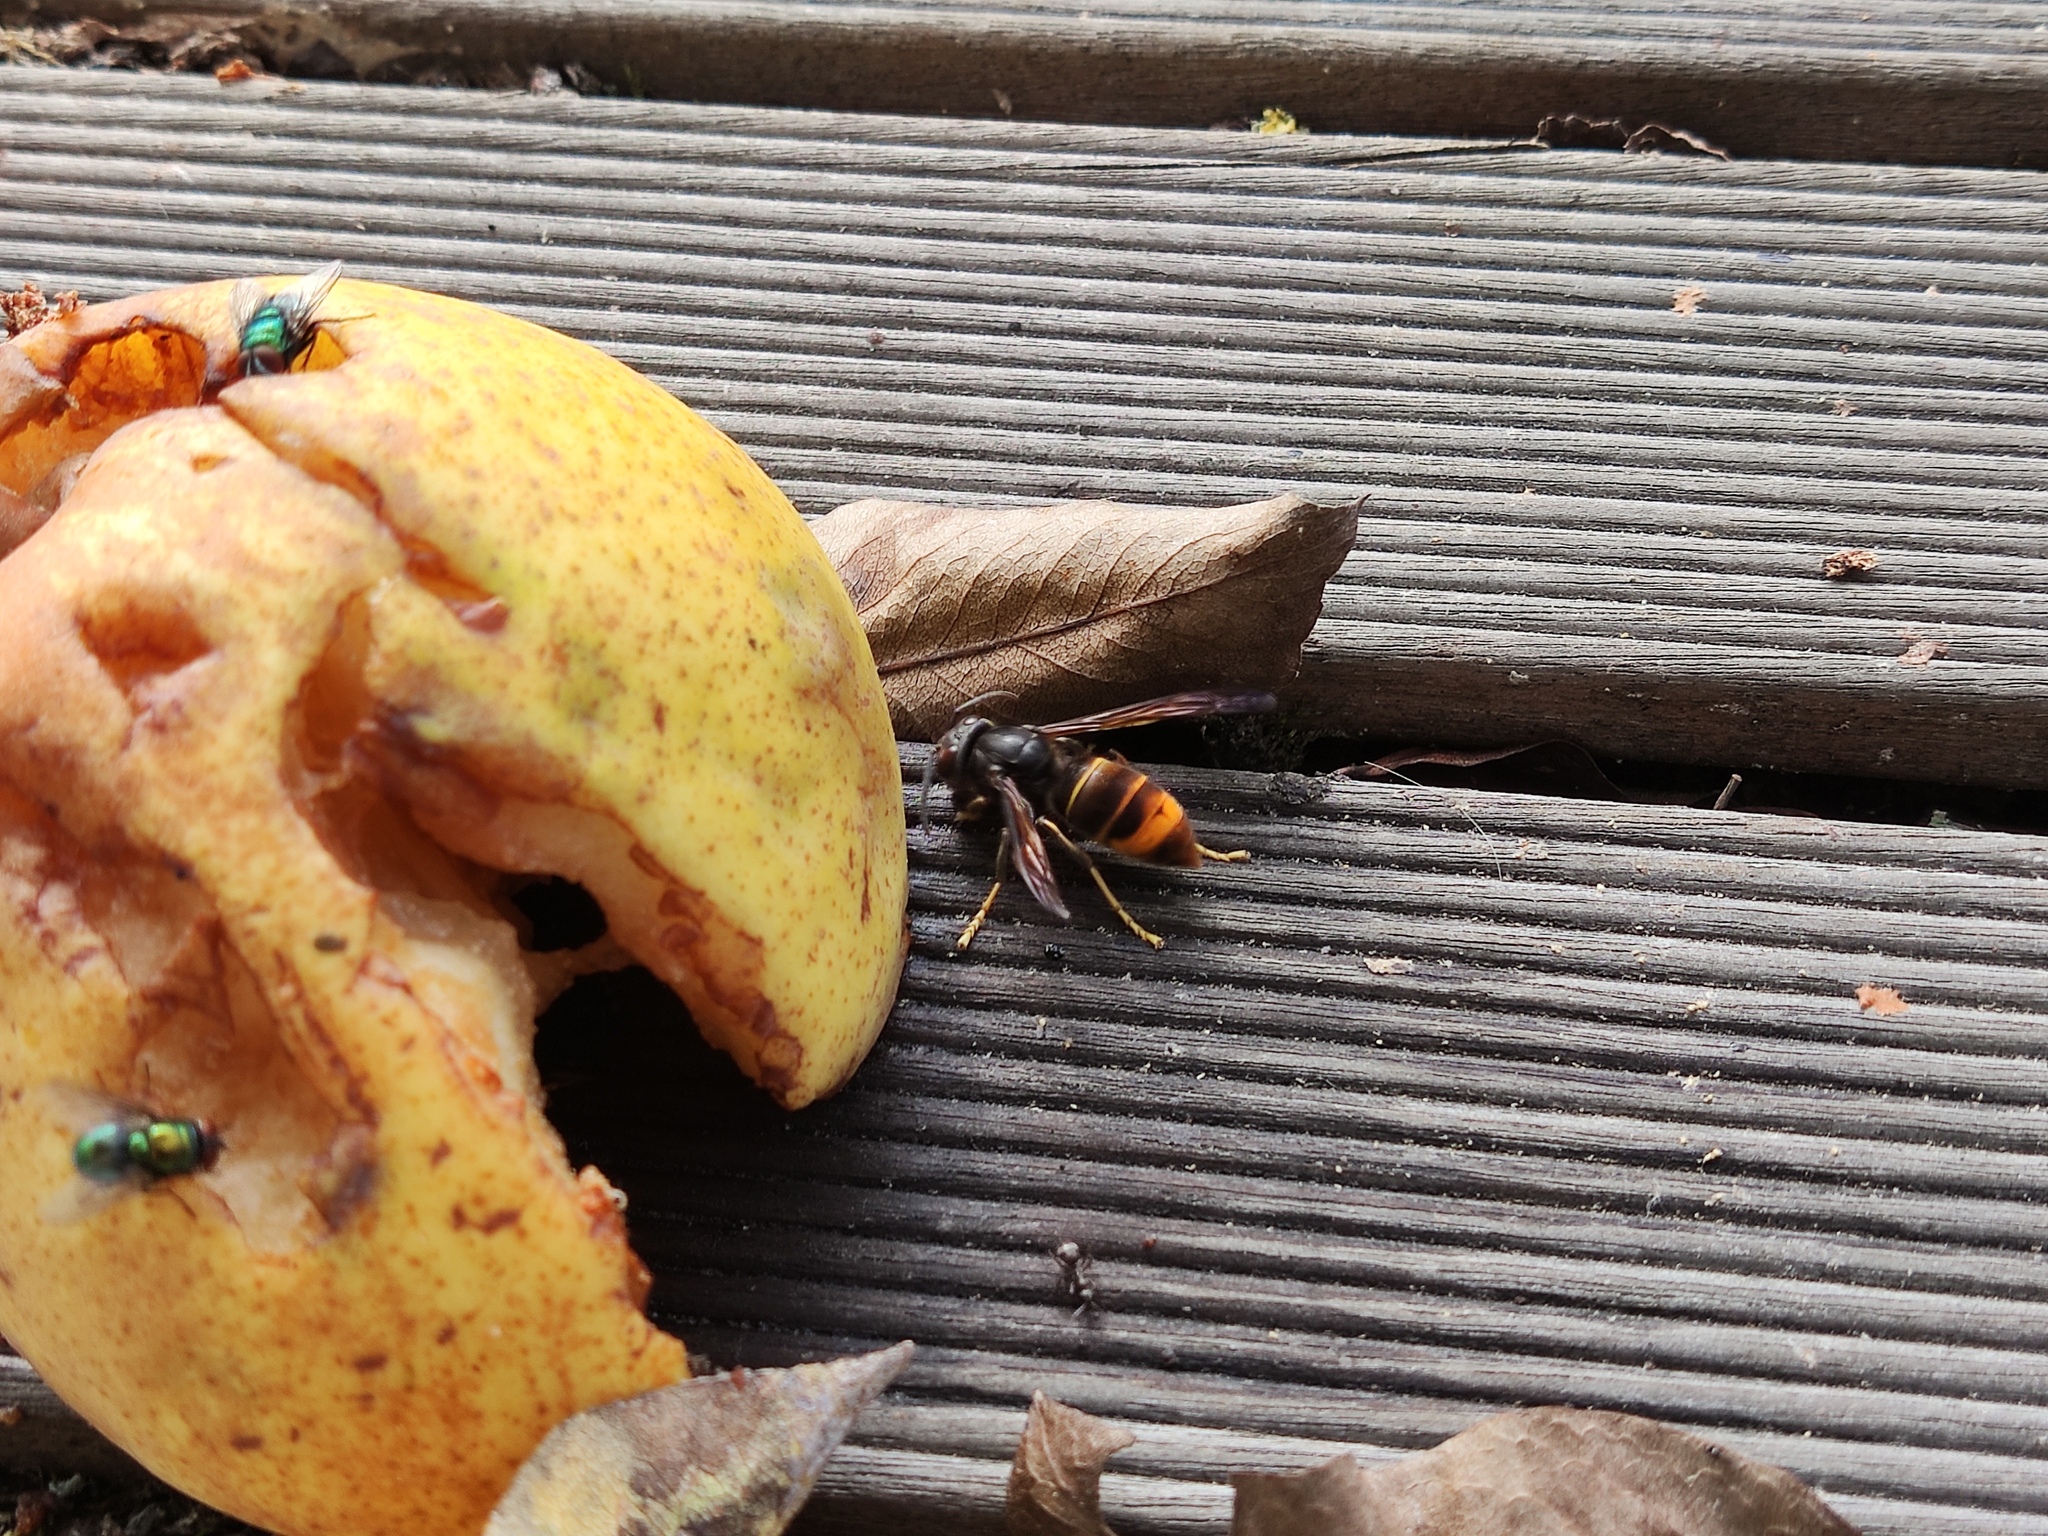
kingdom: Animalia
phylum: Arthropoda
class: Insecta
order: Hymenoptera
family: Vespidae
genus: Vespa
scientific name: Vespa velutina
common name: Asian hornet
